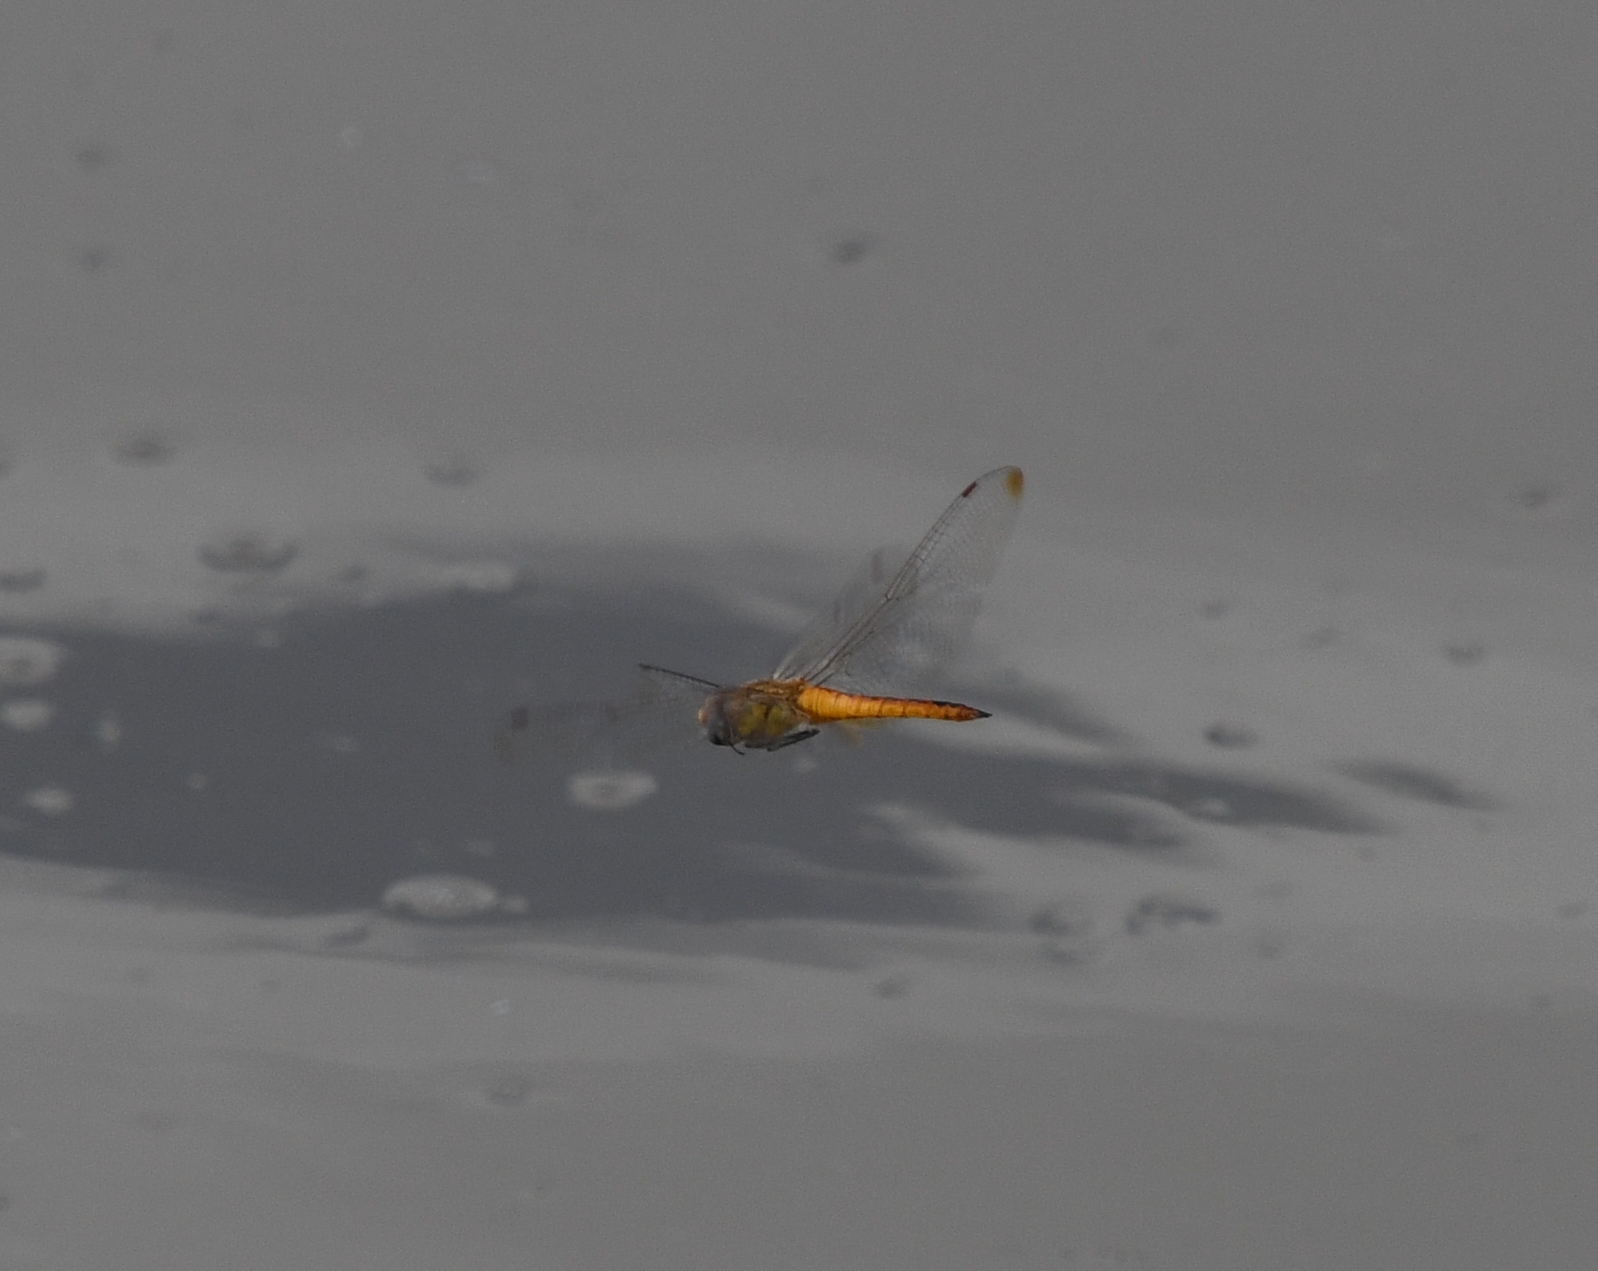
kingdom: Animalia
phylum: Arthropoda
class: Insecta
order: Odonata
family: Libellulidae
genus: Pantala
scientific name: Pantala flavescens
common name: Wandering glider
